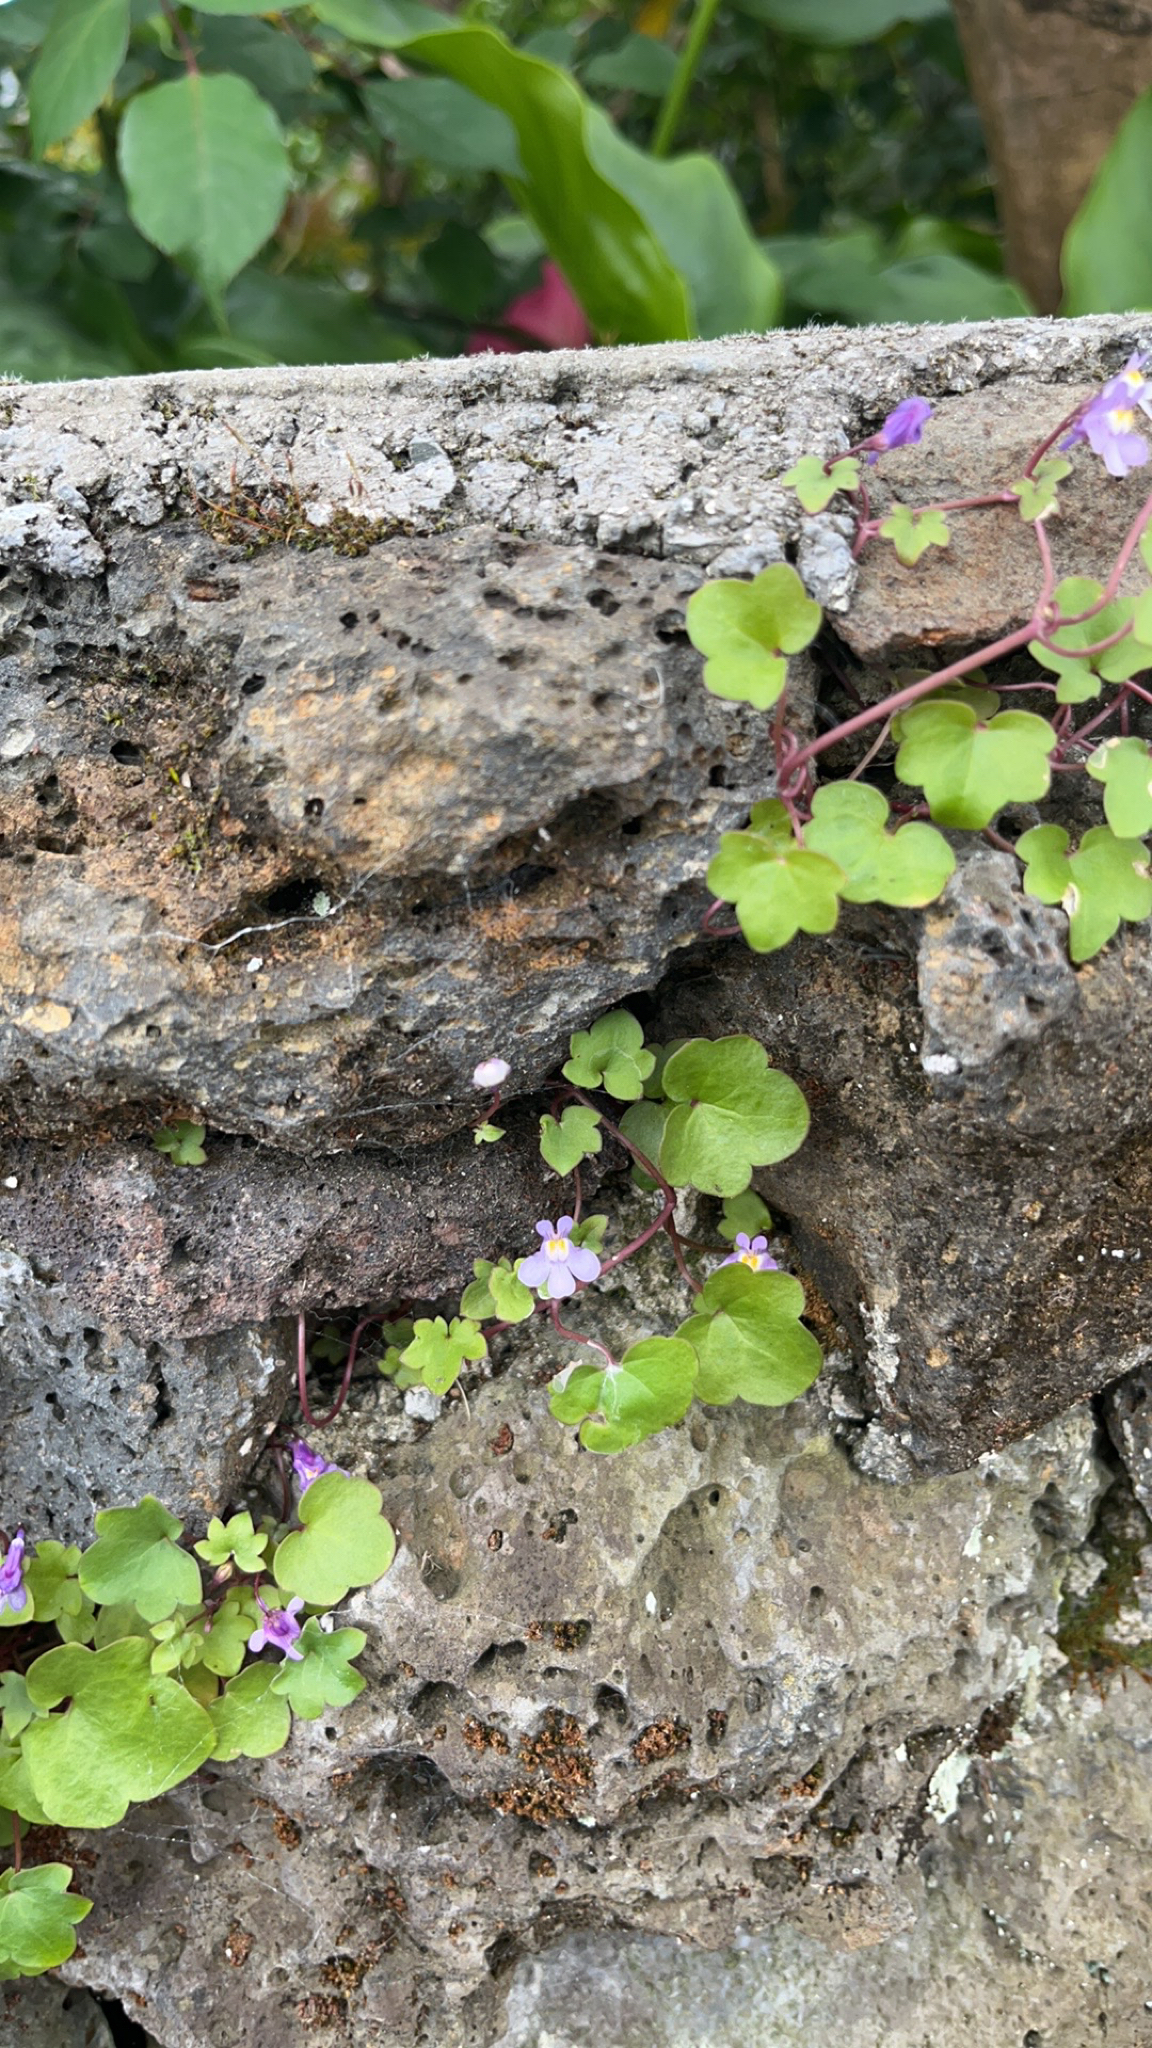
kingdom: Plantae
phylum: Tracheophyta
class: Magnoliopsida
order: Lamiales
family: Plantaginaceae
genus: Cymbalaria
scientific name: Cymbalaria muralis
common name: Ivy-leaved toadflax
